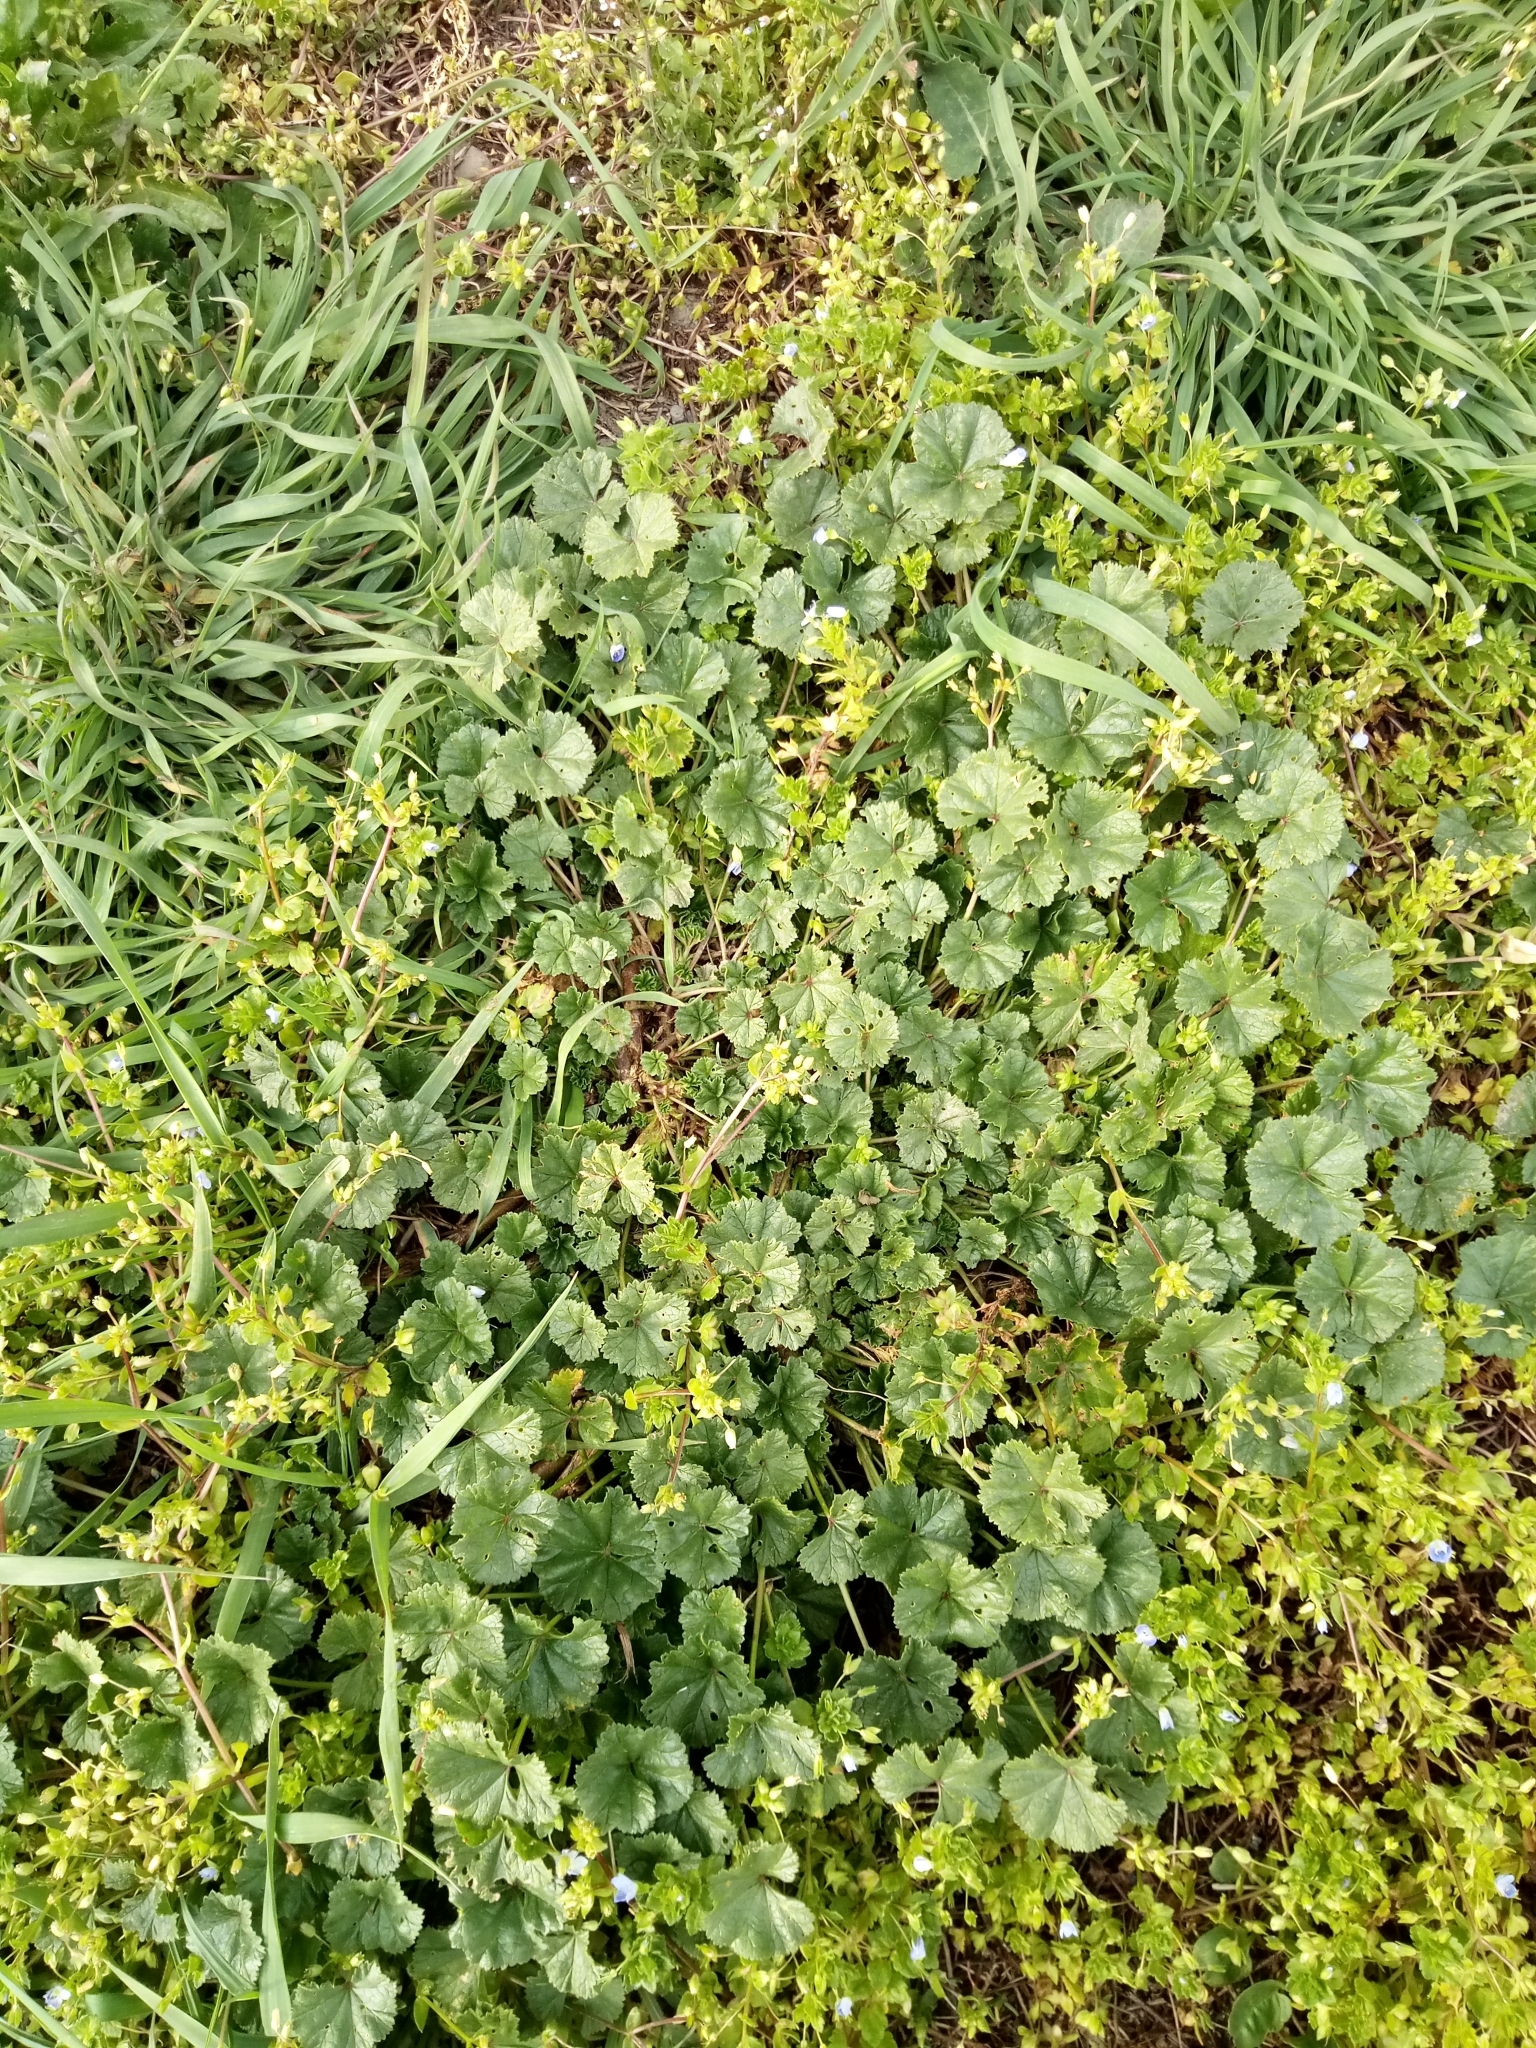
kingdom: Plantae
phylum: Tracheophyta
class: Magnoliopsida
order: Malvales
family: Malvaceae
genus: Malva
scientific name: Malva neglecta
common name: Common mallow
